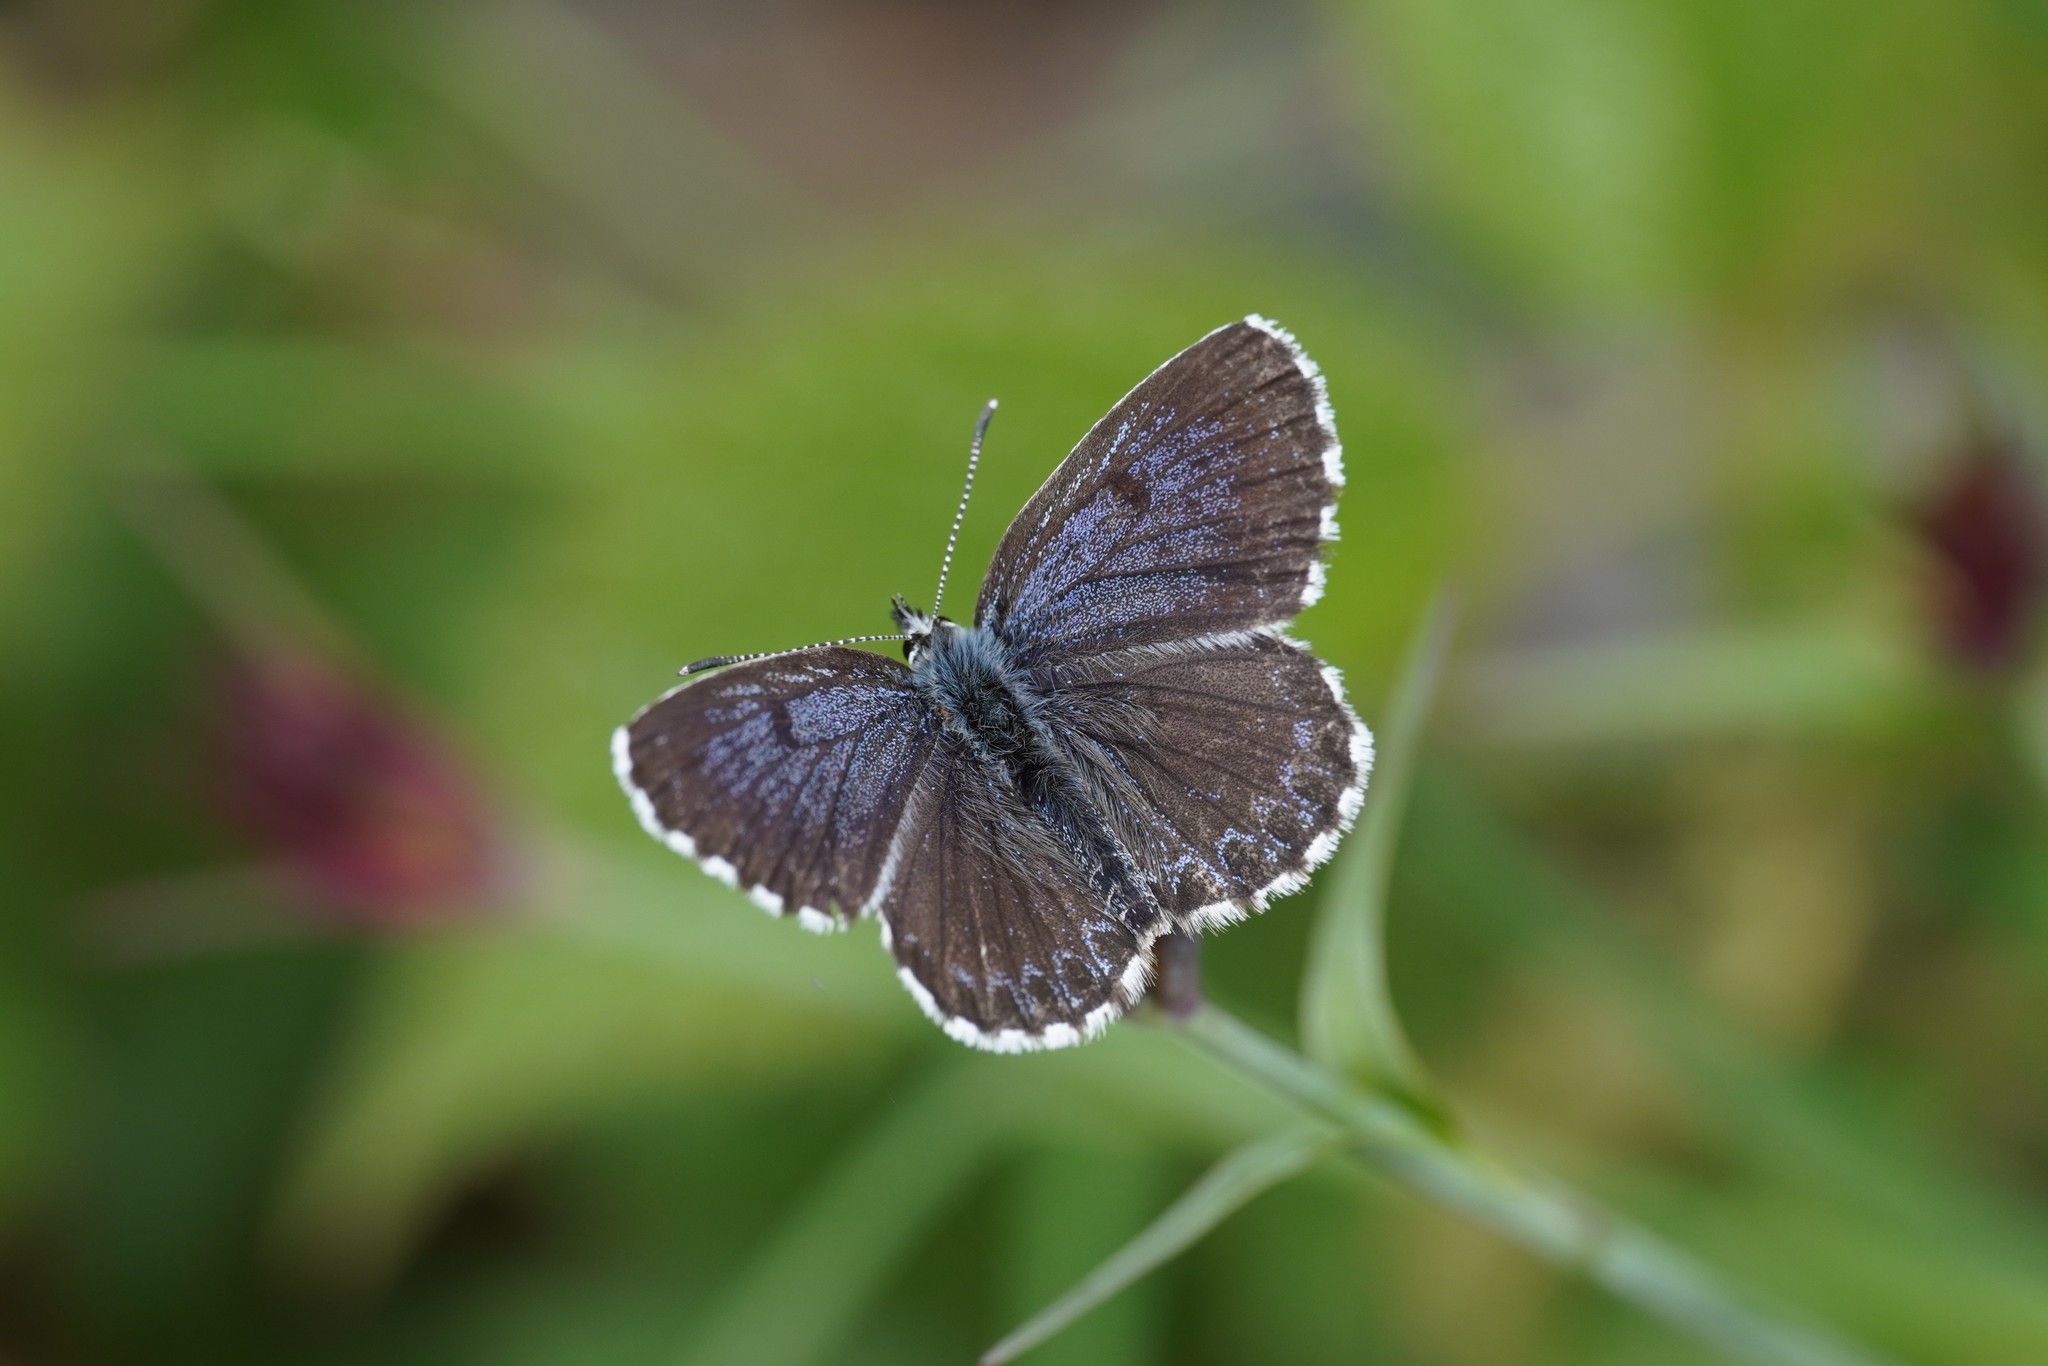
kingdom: Animalia
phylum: Arthropoda
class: Insecta
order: Lepidoptera
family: Lycaenidae
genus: Scolitantides
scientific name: Scolitantides orion
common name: Chequered blue
